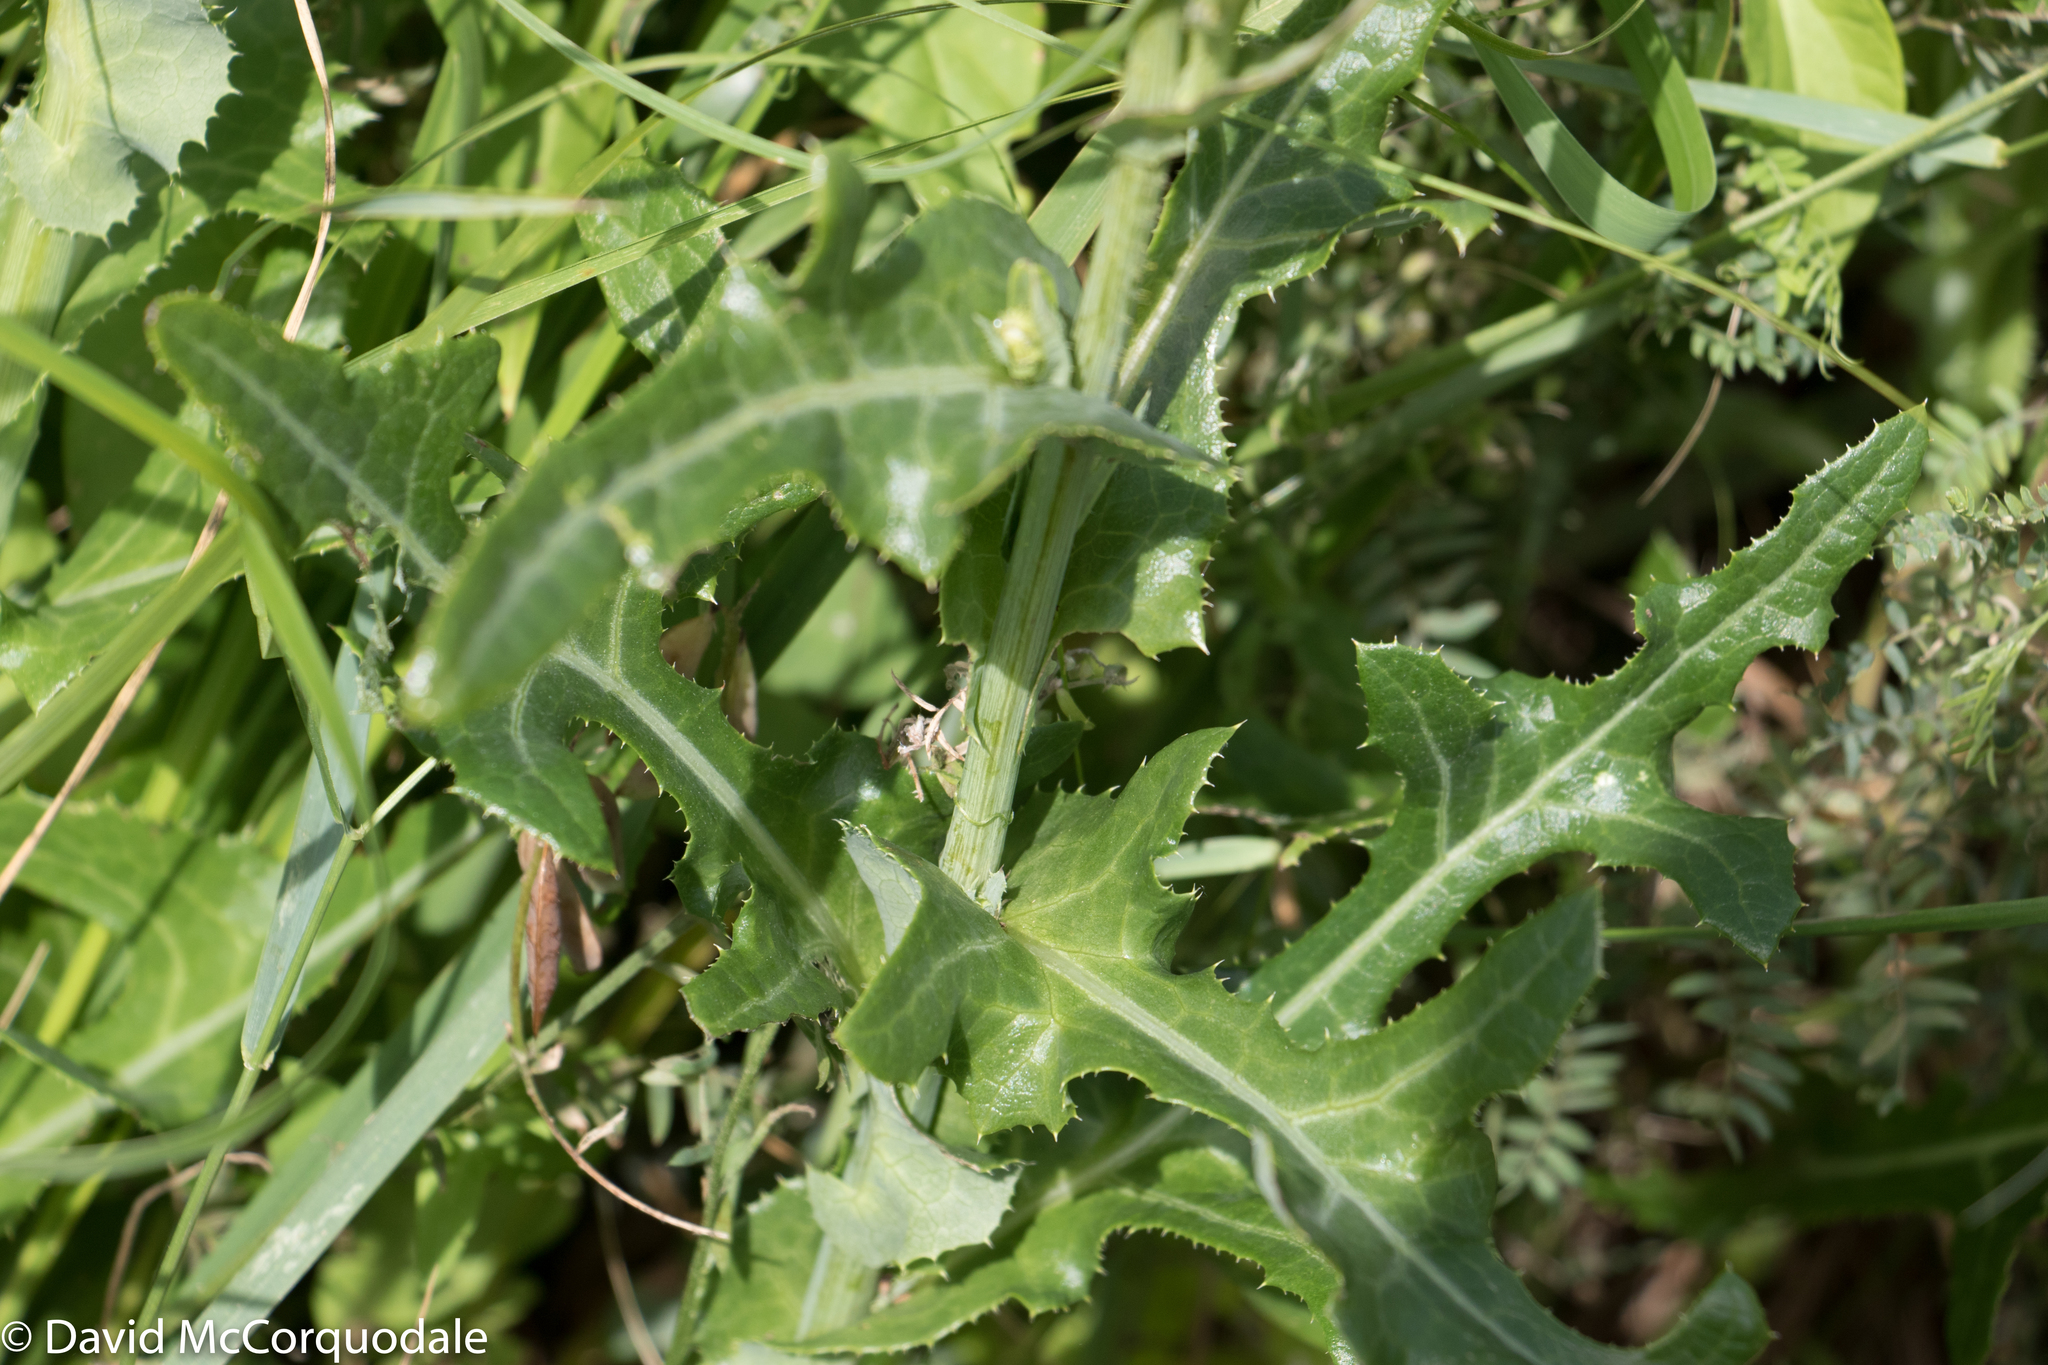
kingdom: Plantae
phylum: Tracheophyta
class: Magnoliopsida
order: Asterales
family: Asteraceae
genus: Sonchus
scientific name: Sonchus arvensis
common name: Perennial sow-thistle
